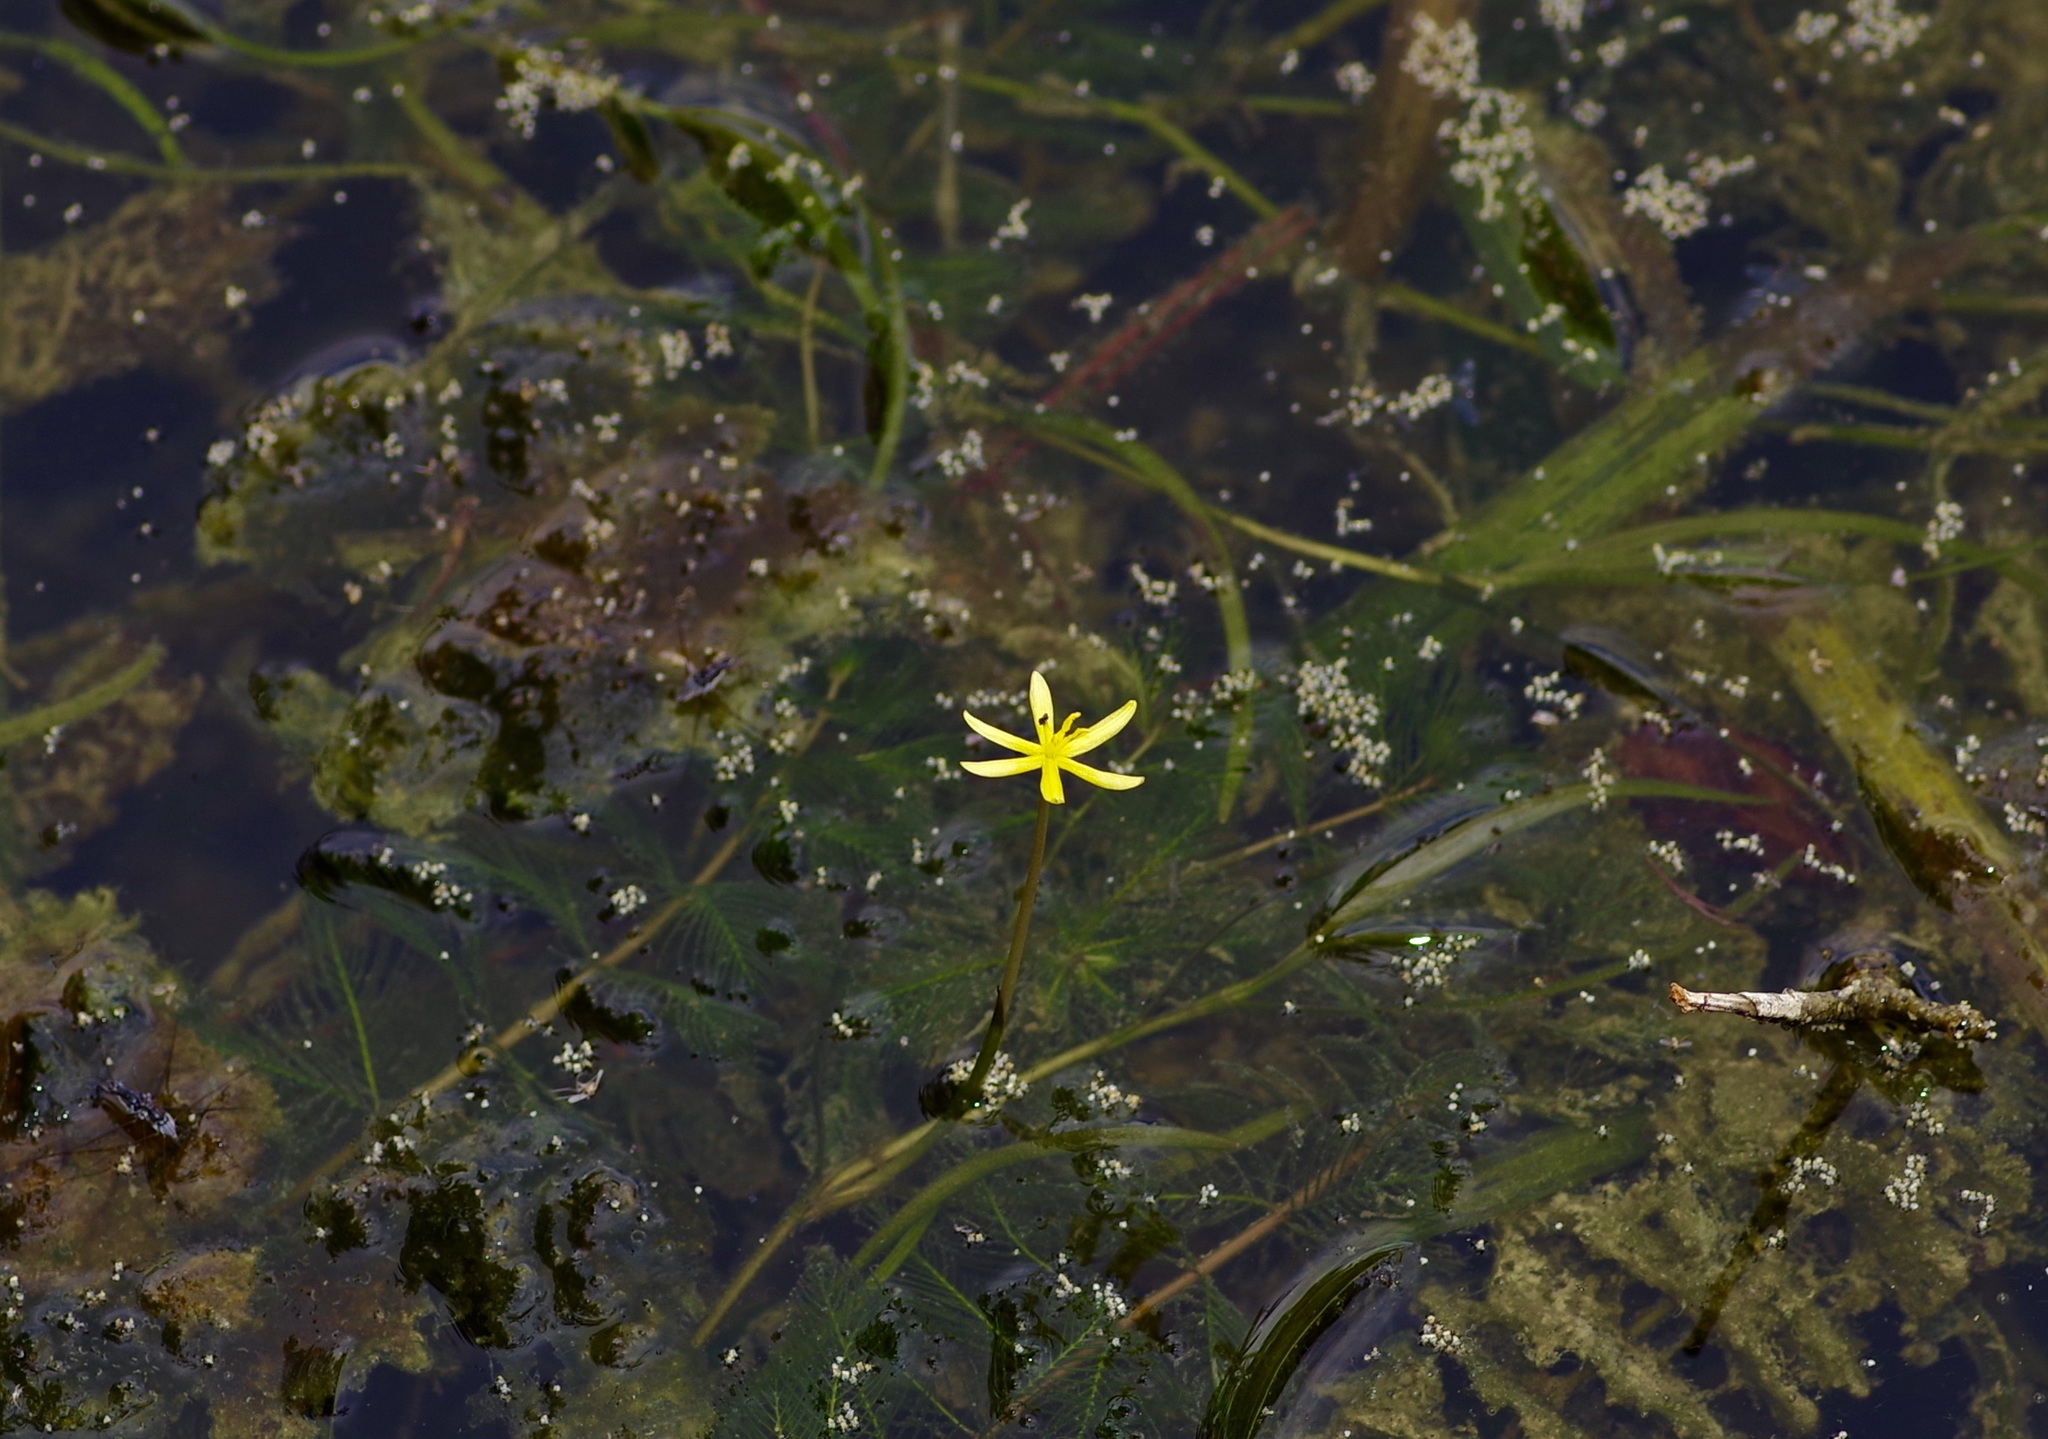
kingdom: Plantae
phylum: Tracheophyta
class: Liliopsida
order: Commelinales
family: Pontederiaceae
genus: Heteranthera
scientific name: Heteranthera dubia
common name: Grass-leaved mud plantain
